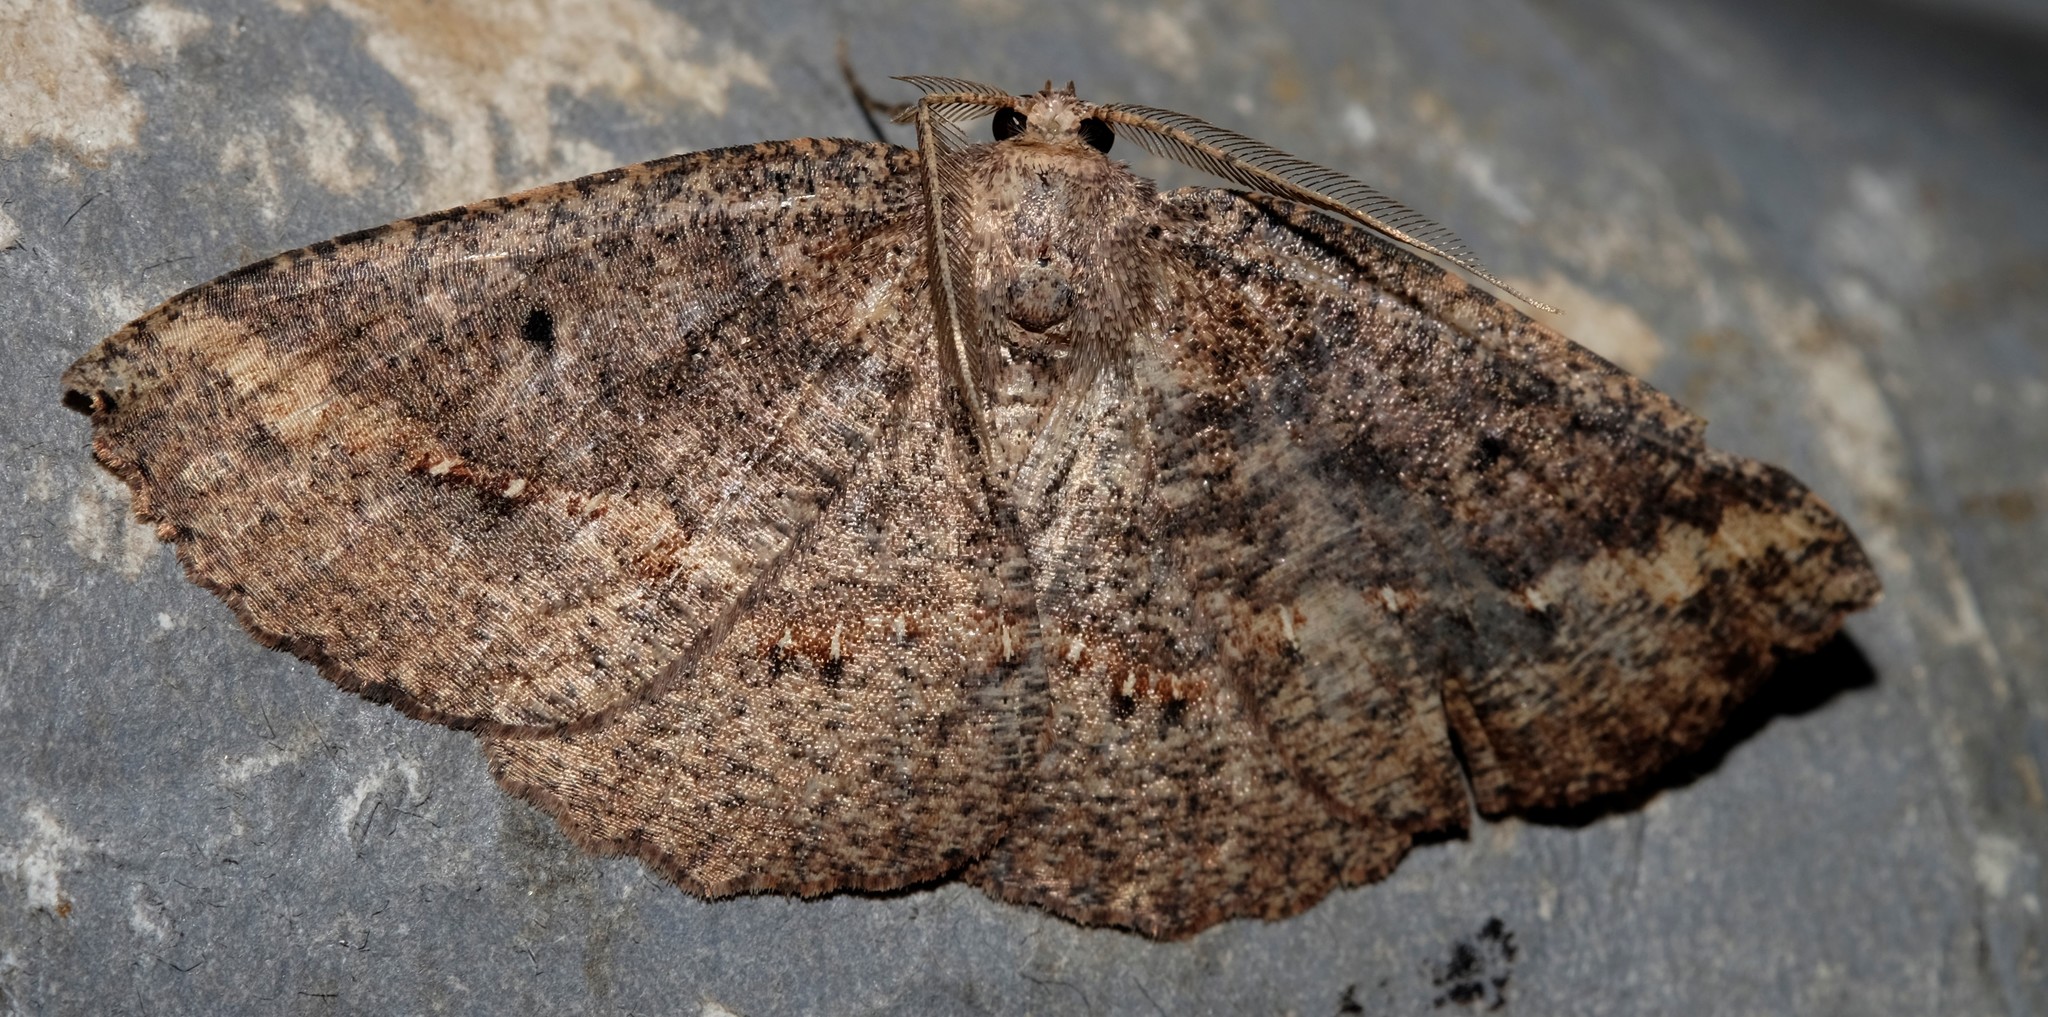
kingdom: Animalia
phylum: Arthropoda
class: Insecta
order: Lepidoptera
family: Geometridae
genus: Xenomusa
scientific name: Xenomusa
